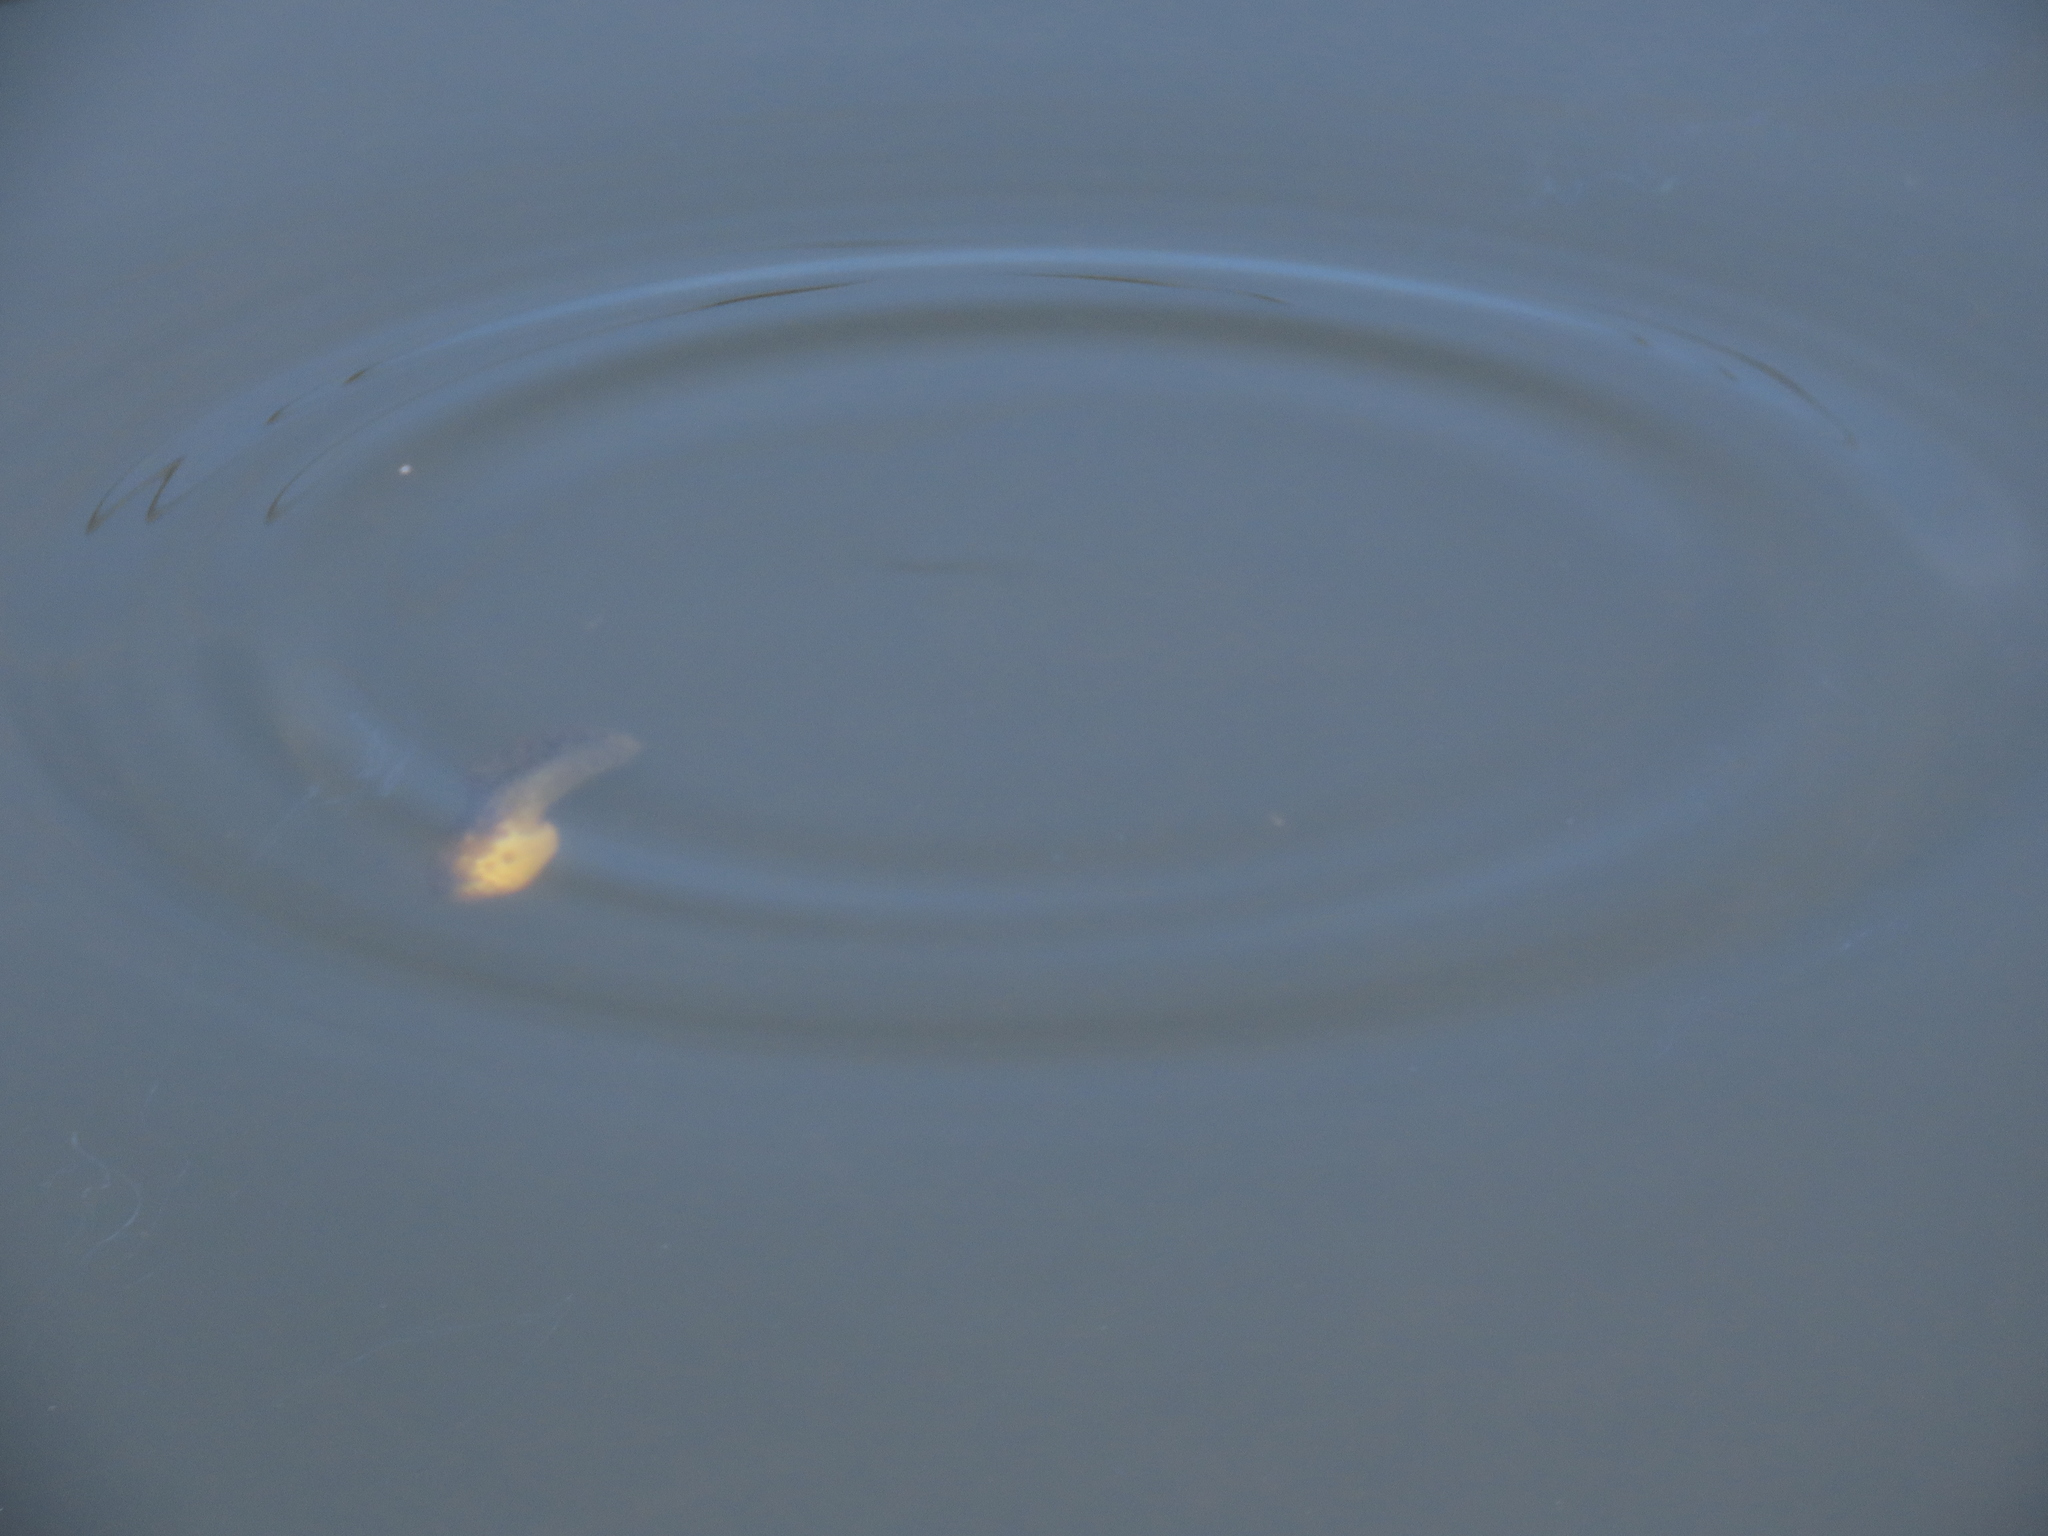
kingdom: Animalia
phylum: Chordata
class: Amphibia
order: Anura
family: Ranidae
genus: Lithobates
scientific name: Lithobates catesbeianus
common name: American bullfrog
